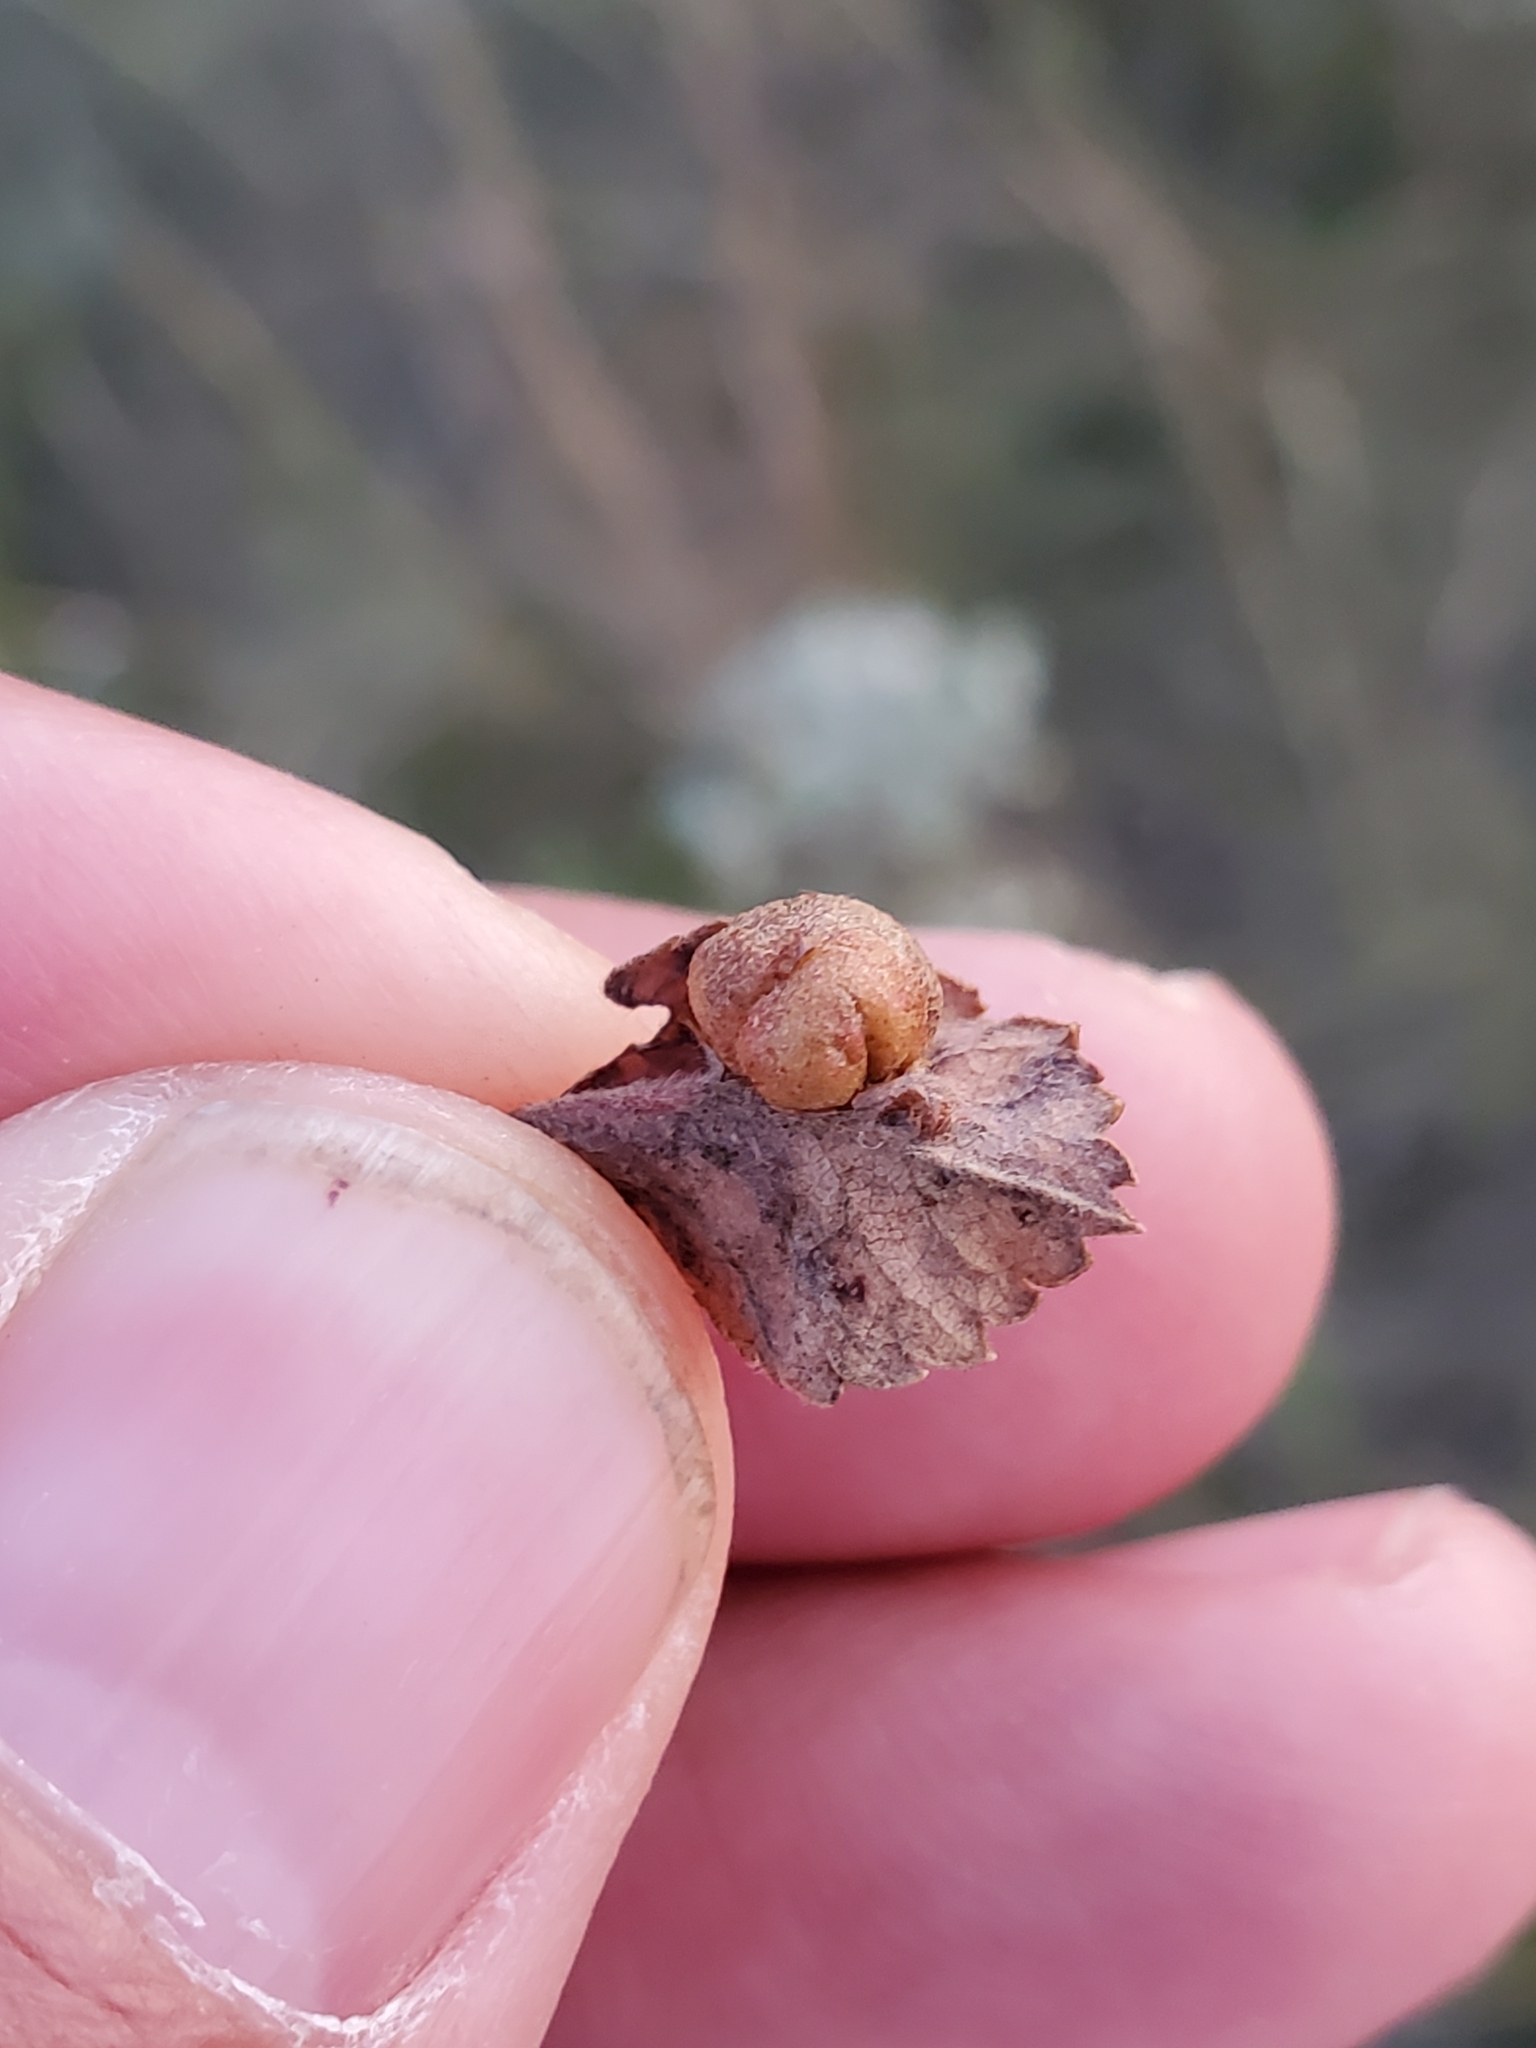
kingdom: Animalia
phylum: Arthropoda
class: Insecta
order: Hymenoptera
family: Cynipidae
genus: Diplolepis
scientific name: Diplolepis ignota
